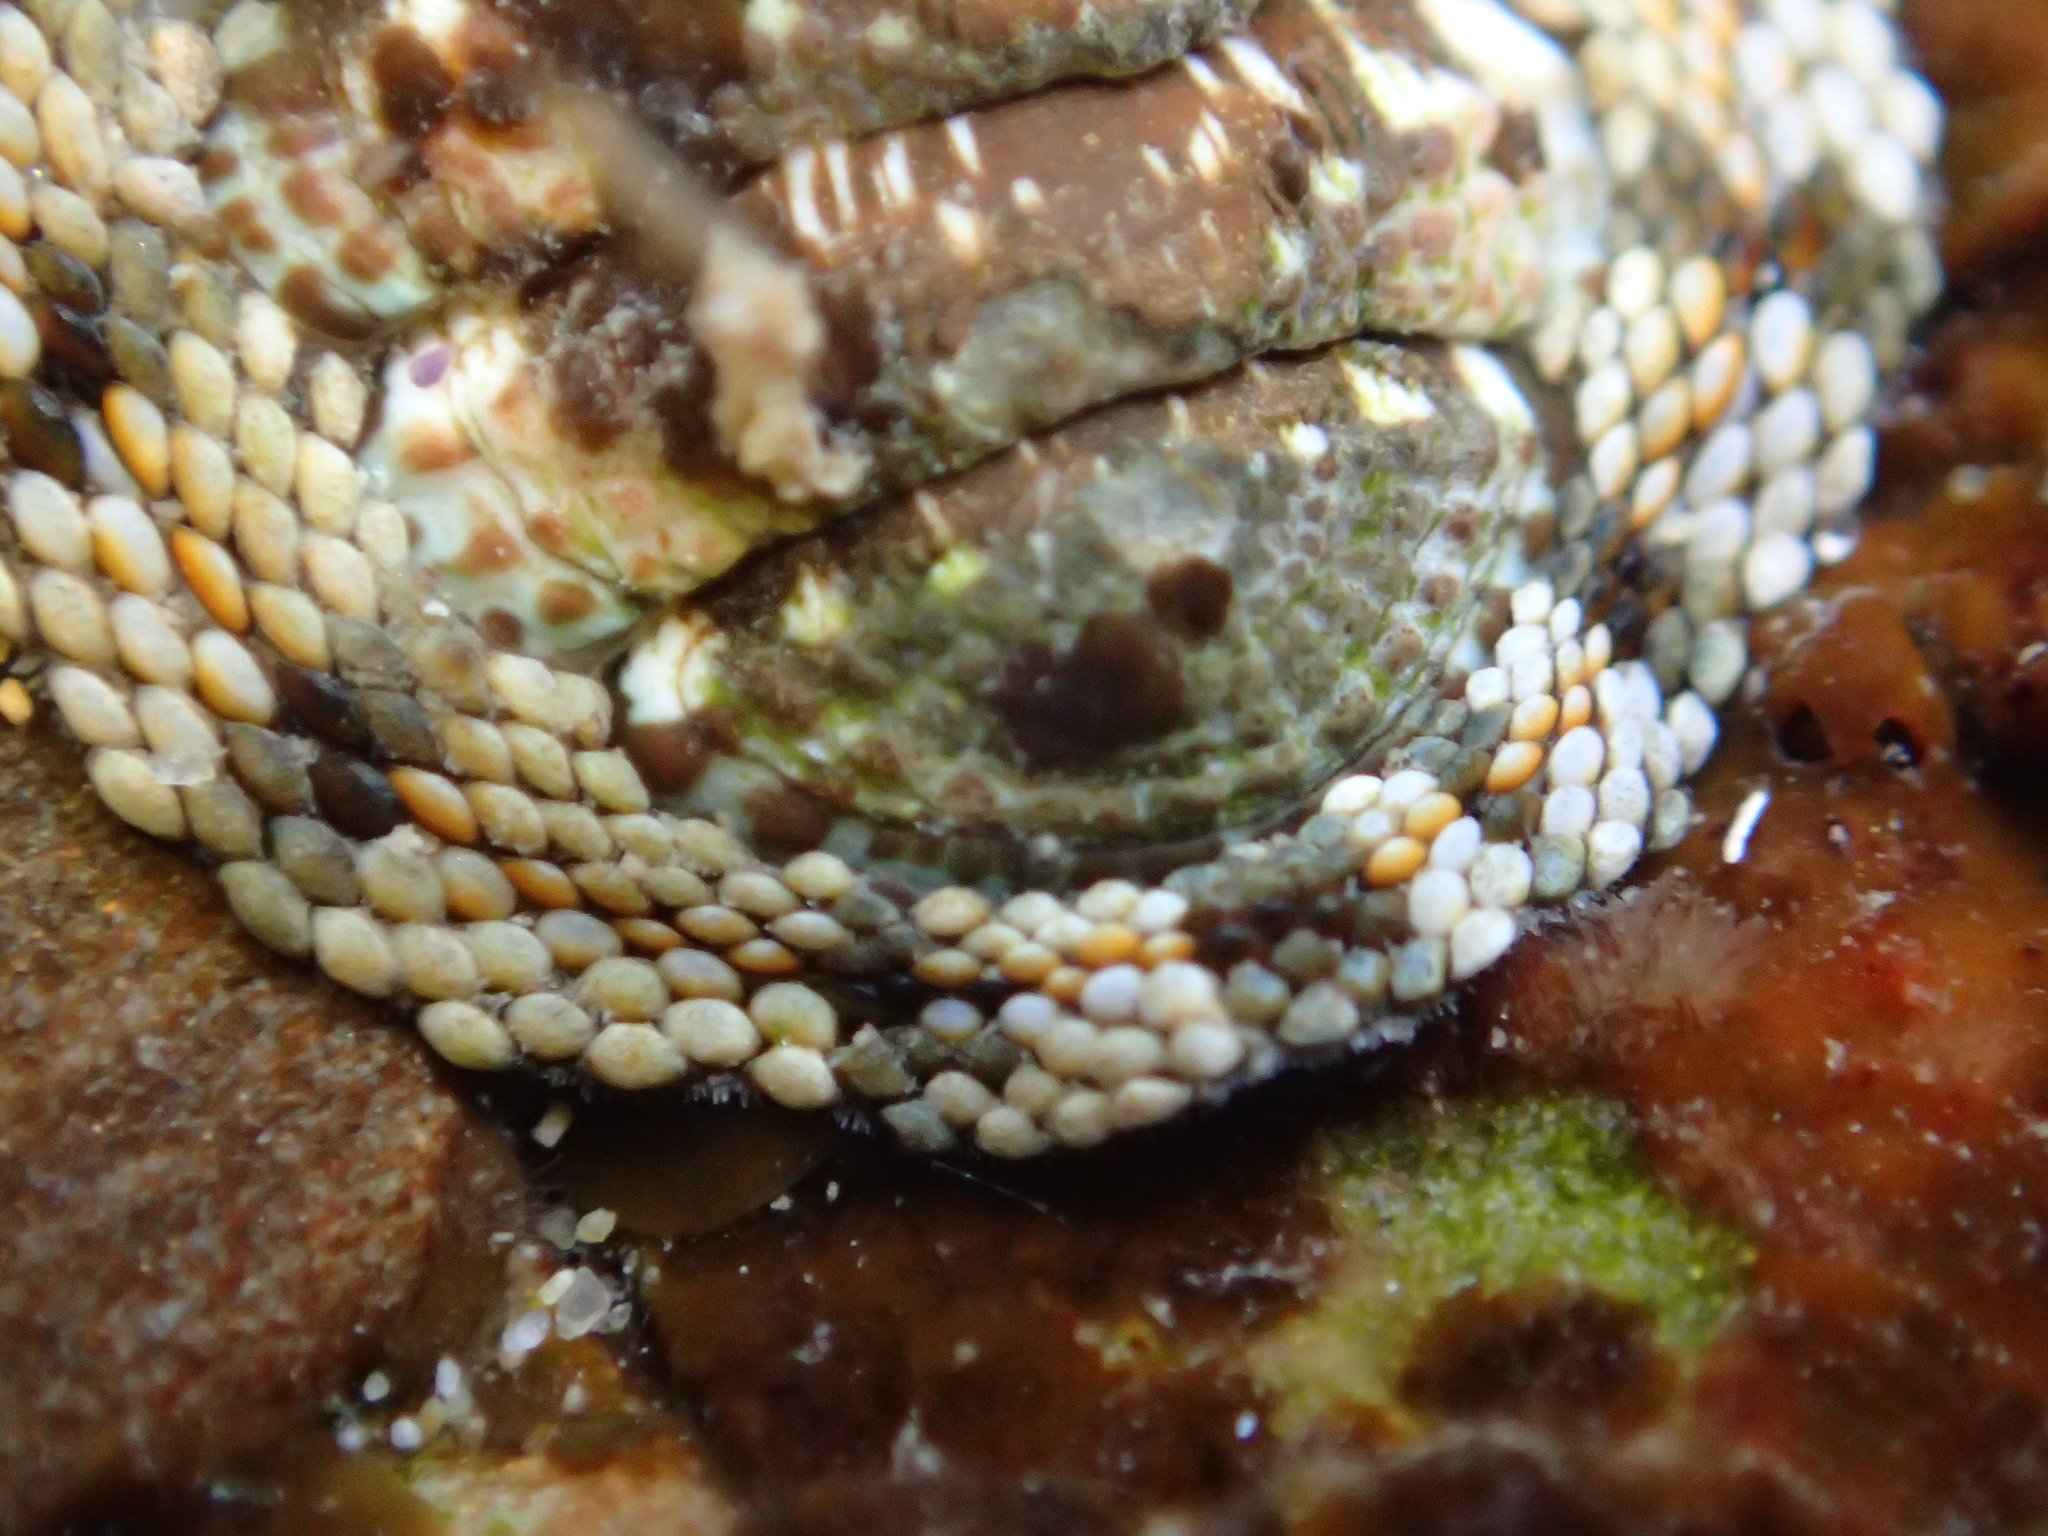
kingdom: Animalia
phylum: Mollusca
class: Polyplacophora
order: Chitonida
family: Chitonidae
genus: Sypharochiton
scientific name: Sypharochiton sinclairi
